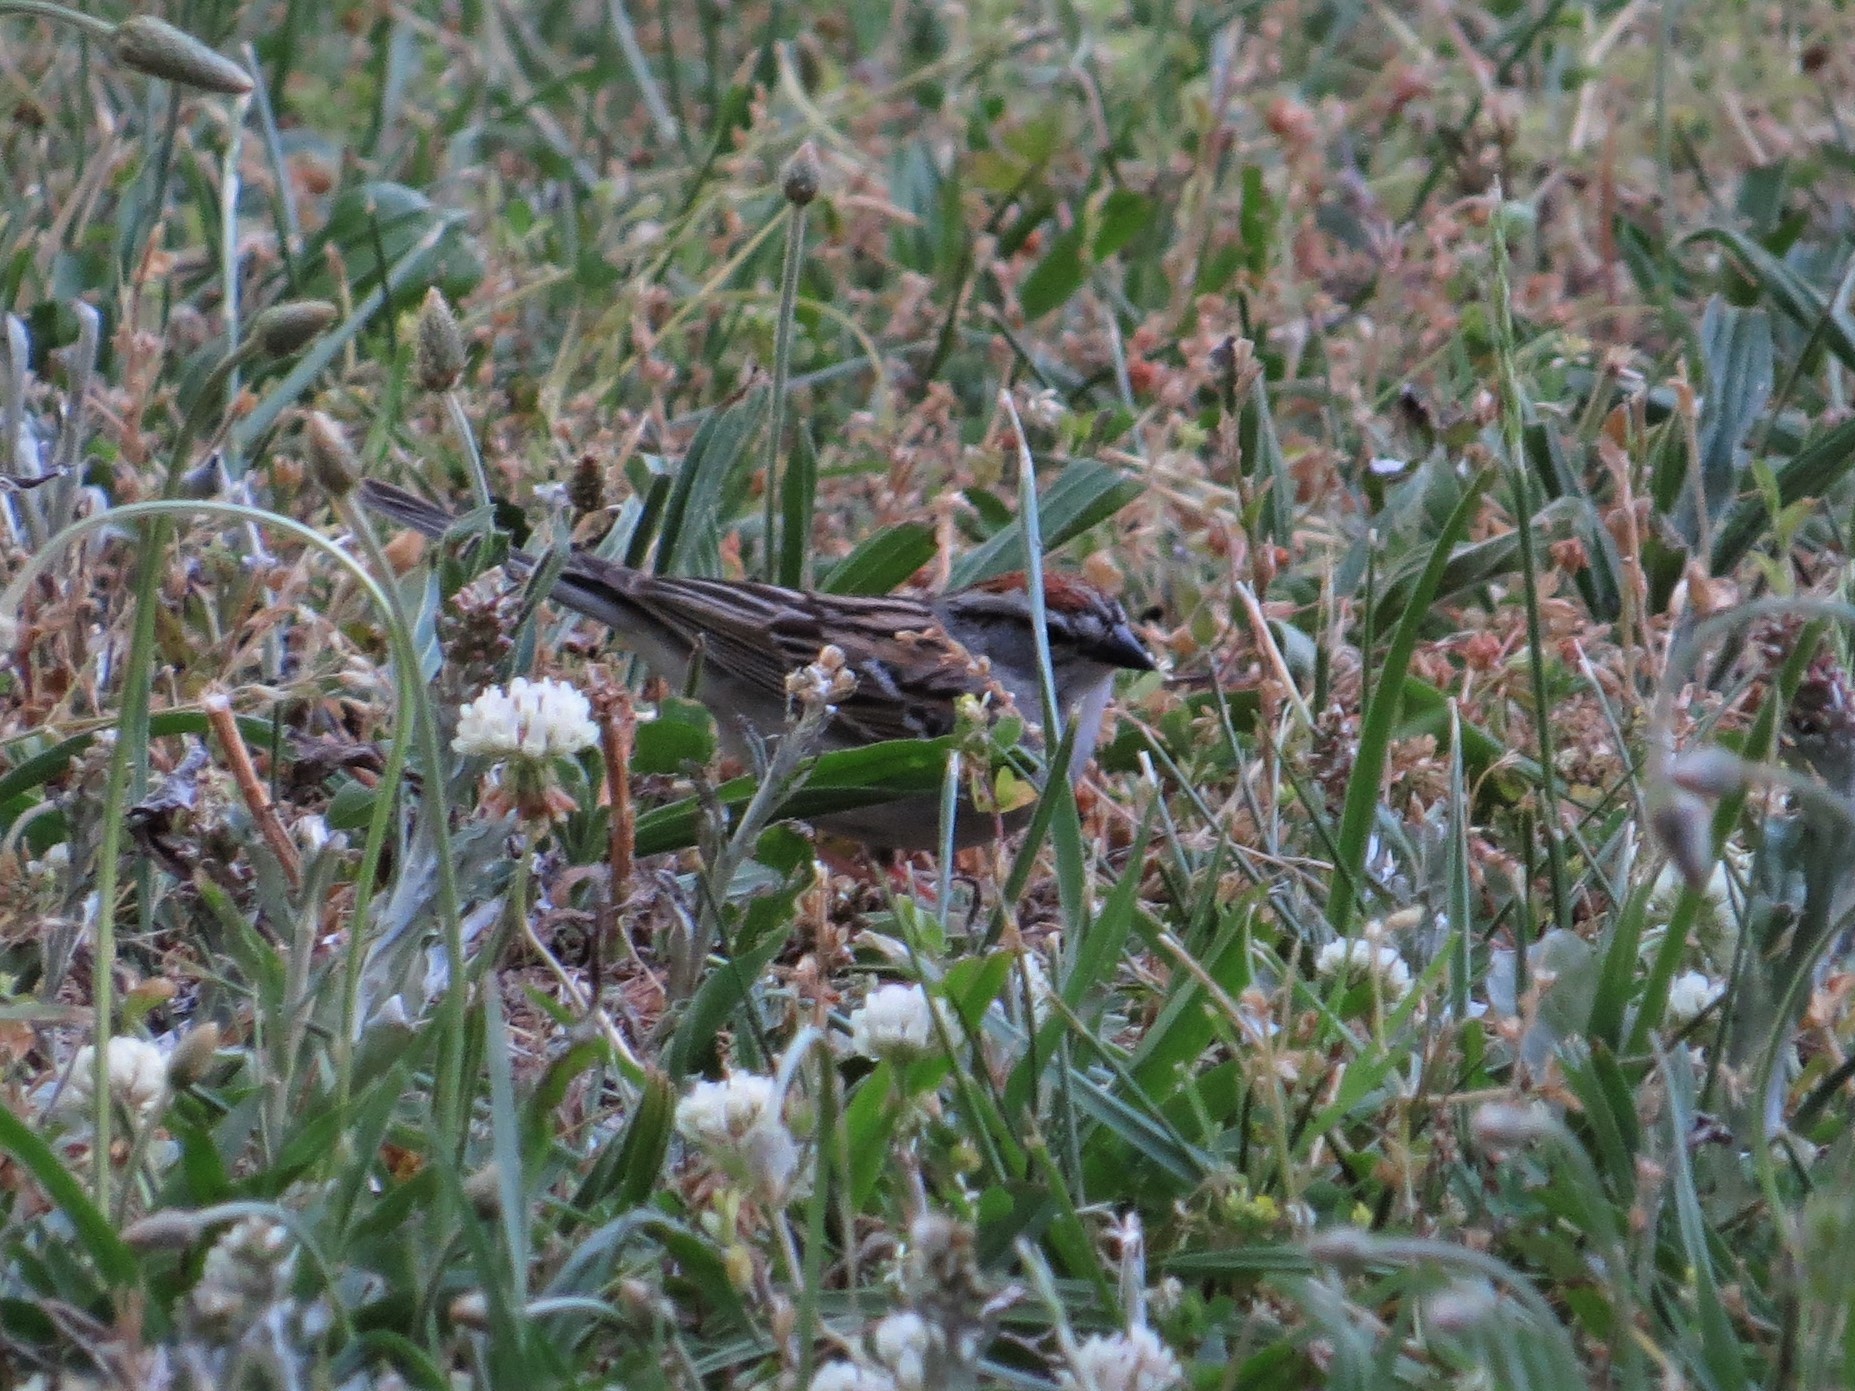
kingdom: Animalia
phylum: Chordata
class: Aves
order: Passeriformes
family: Passerellidae
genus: Spizella
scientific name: Spizella passerina
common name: Chipping sparrow
